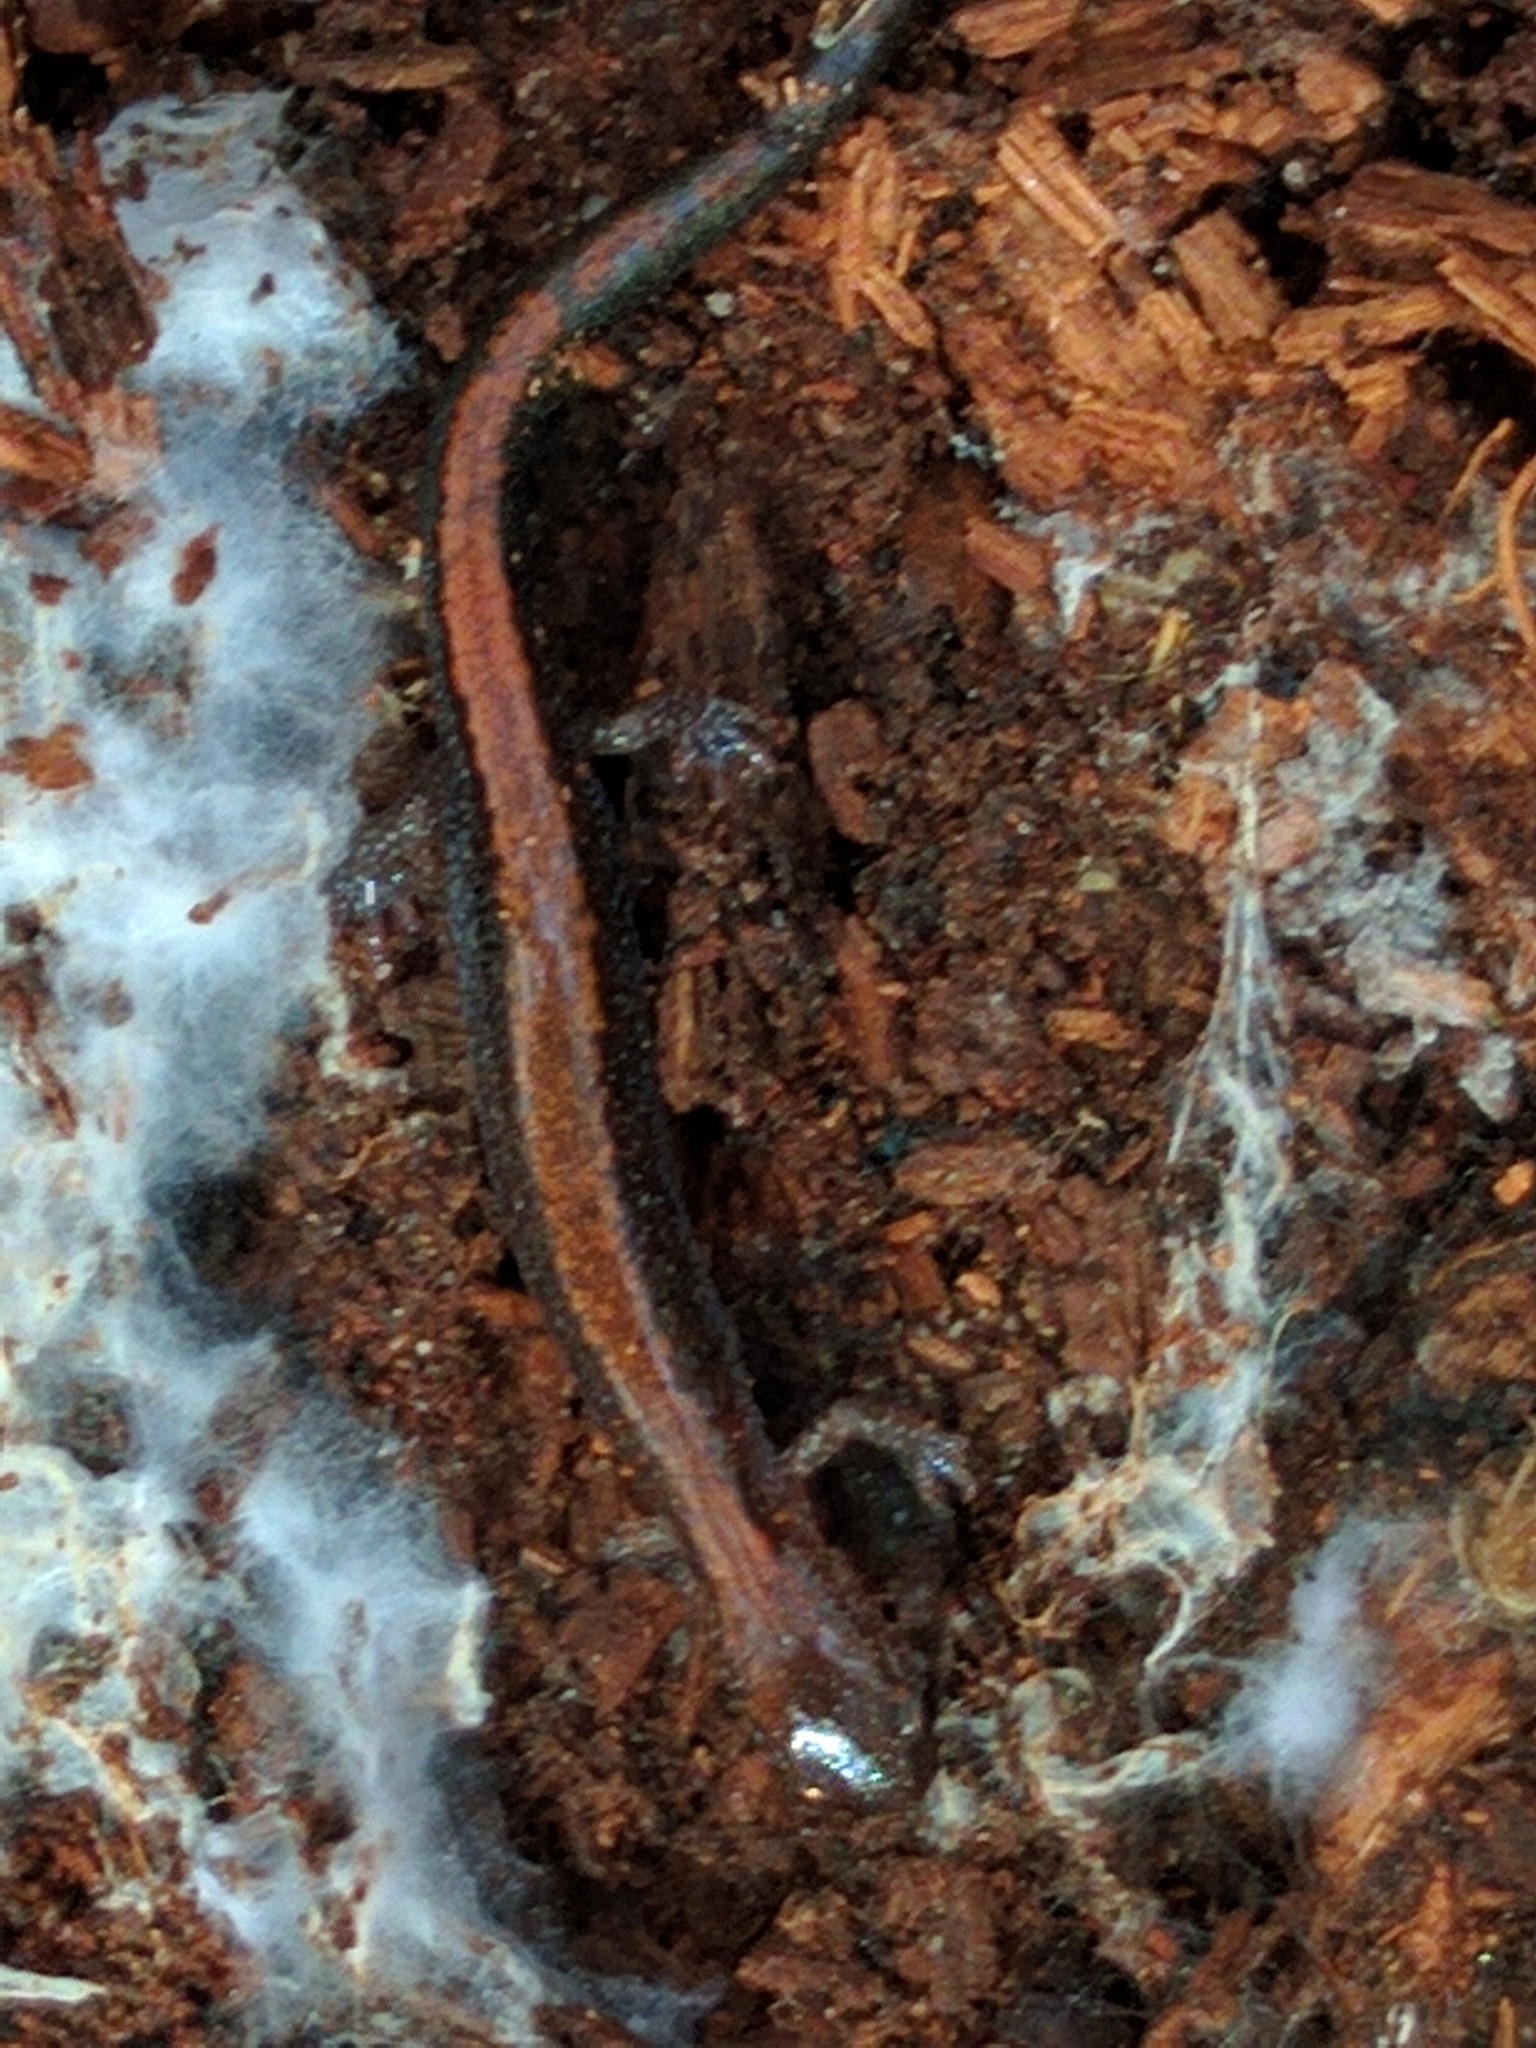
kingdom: Animalia
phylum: Chordata
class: Amphibia
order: Caudata
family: Plethodontidae
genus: Plethodon
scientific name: Plethodon cinereus
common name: Redback salamander
